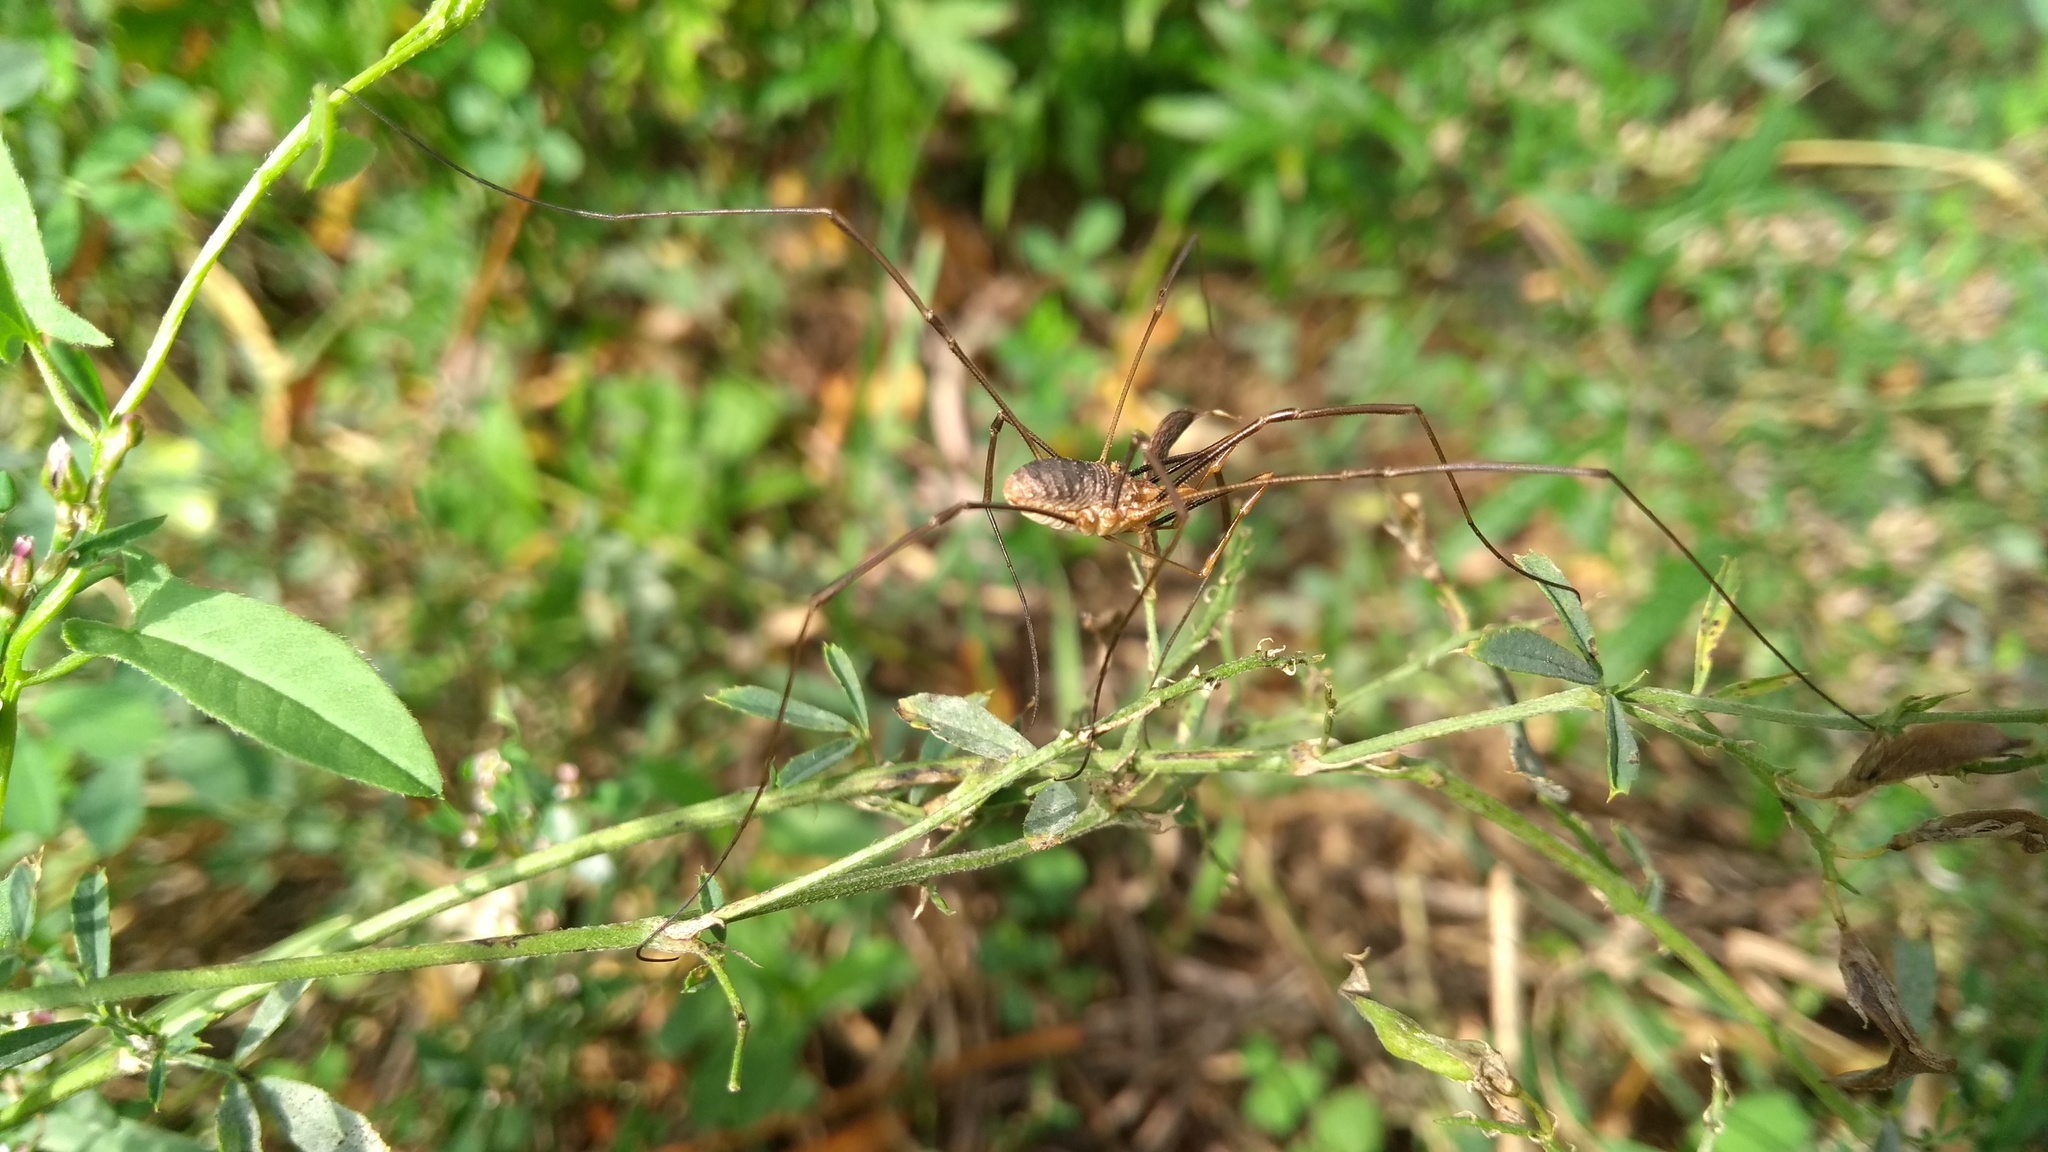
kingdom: Animalia
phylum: Arthropoda
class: Arachnida
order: Opiliones
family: Phalangiidae
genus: Phalangium
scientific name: Phalangium opilio
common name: Daddy longleg
